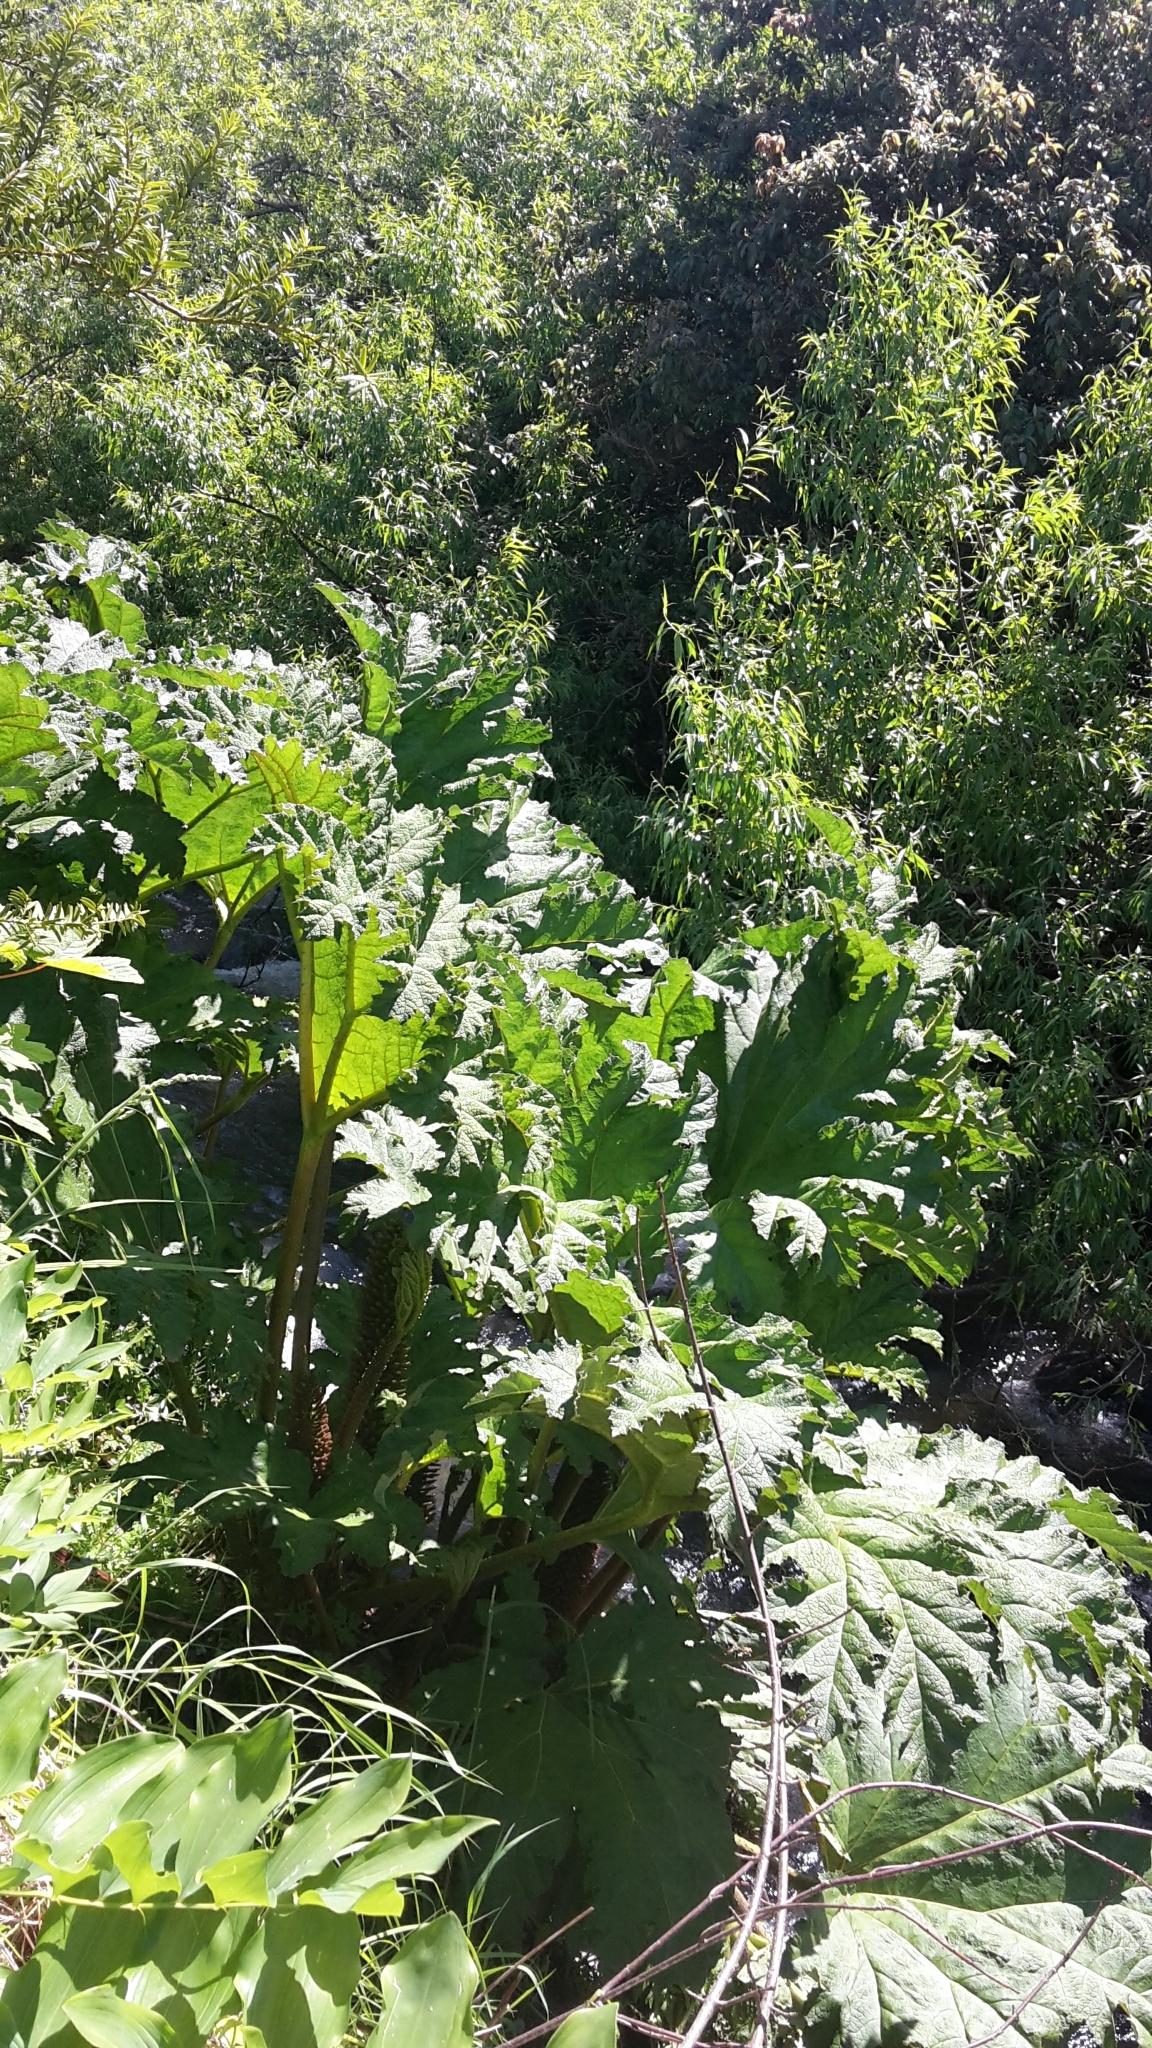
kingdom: Plantae
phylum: Tracheophyta
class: Magnoliopsida
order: Gunnerales
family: Gunneraceae
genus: Gunnera
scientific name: Gunnera tinctoria
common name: Giant-rhubarb
